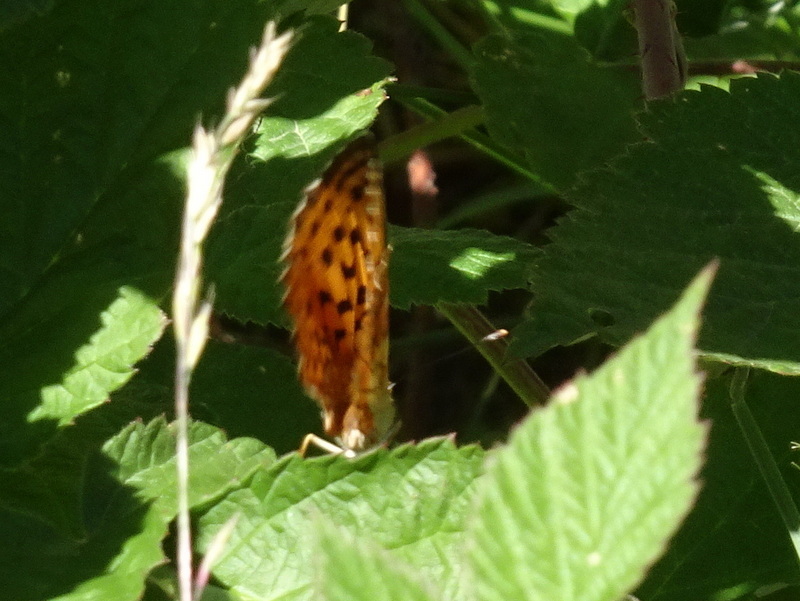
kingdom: Animalia
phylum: Arthropoda
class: Insecta
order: Lepidoptera
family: Nymphalidae
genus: Brenthis
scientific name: Brenthis daphne
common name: Marbled fritillary
